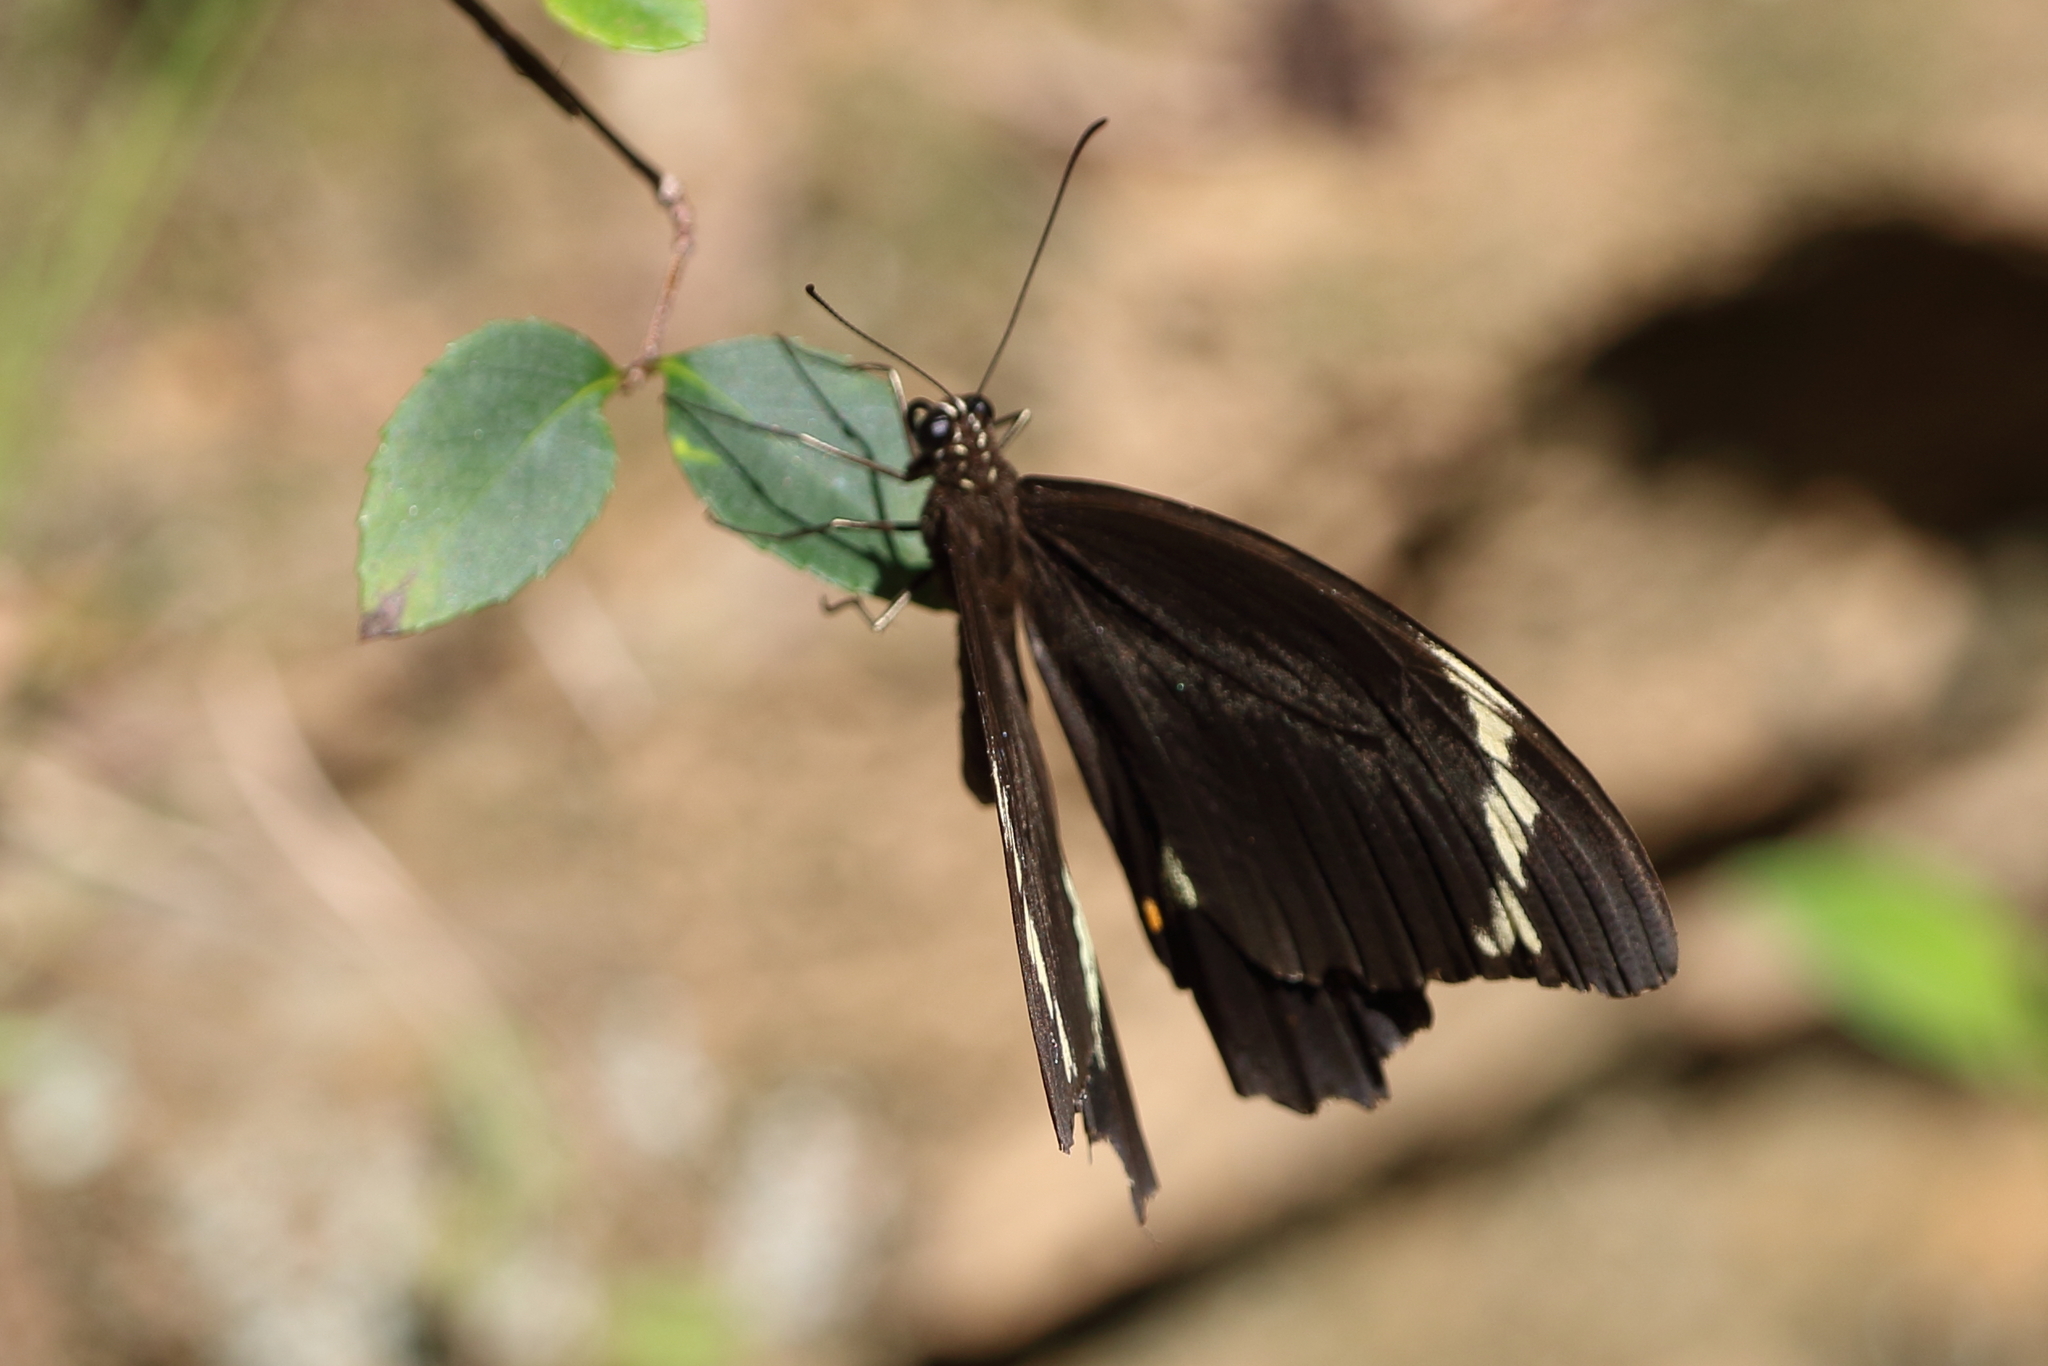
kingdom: Animalia
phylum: Arthropoda
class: Insecta
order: Lepidoptera
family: Papilionidae
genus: Papilio
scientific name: Papilio aegeus
